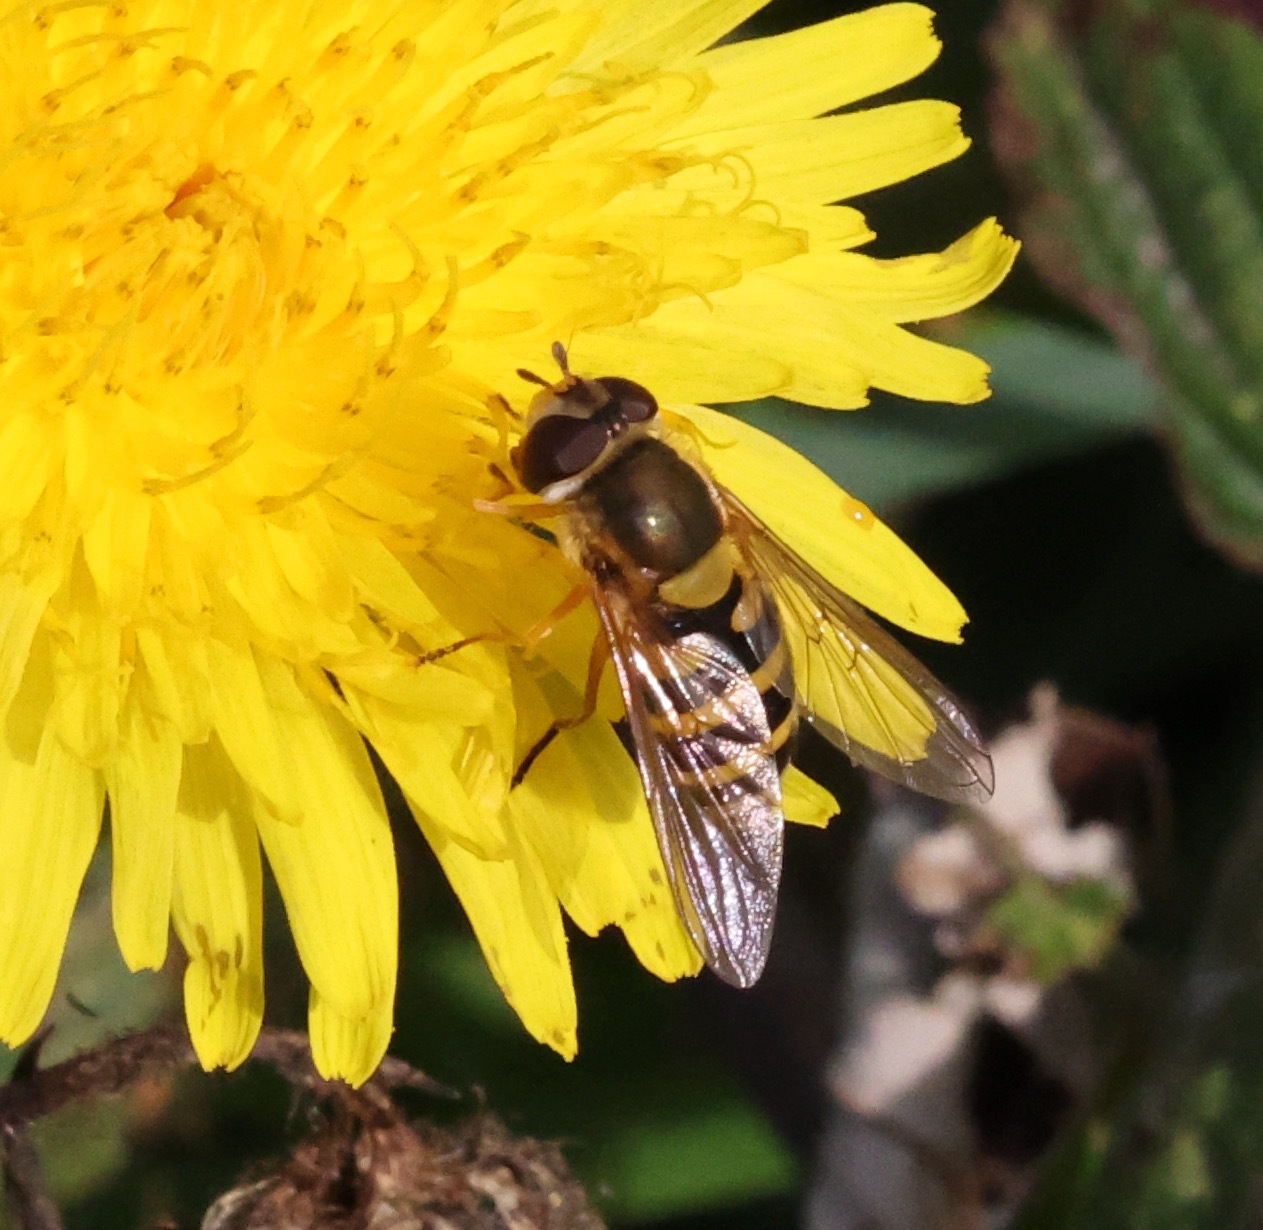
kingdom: Animalia
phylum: Arthropoda
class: Insecta
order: Diptera
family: Syrphidae
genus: Syrphus
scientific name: Syrphus ribesii
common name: Common flower fly
